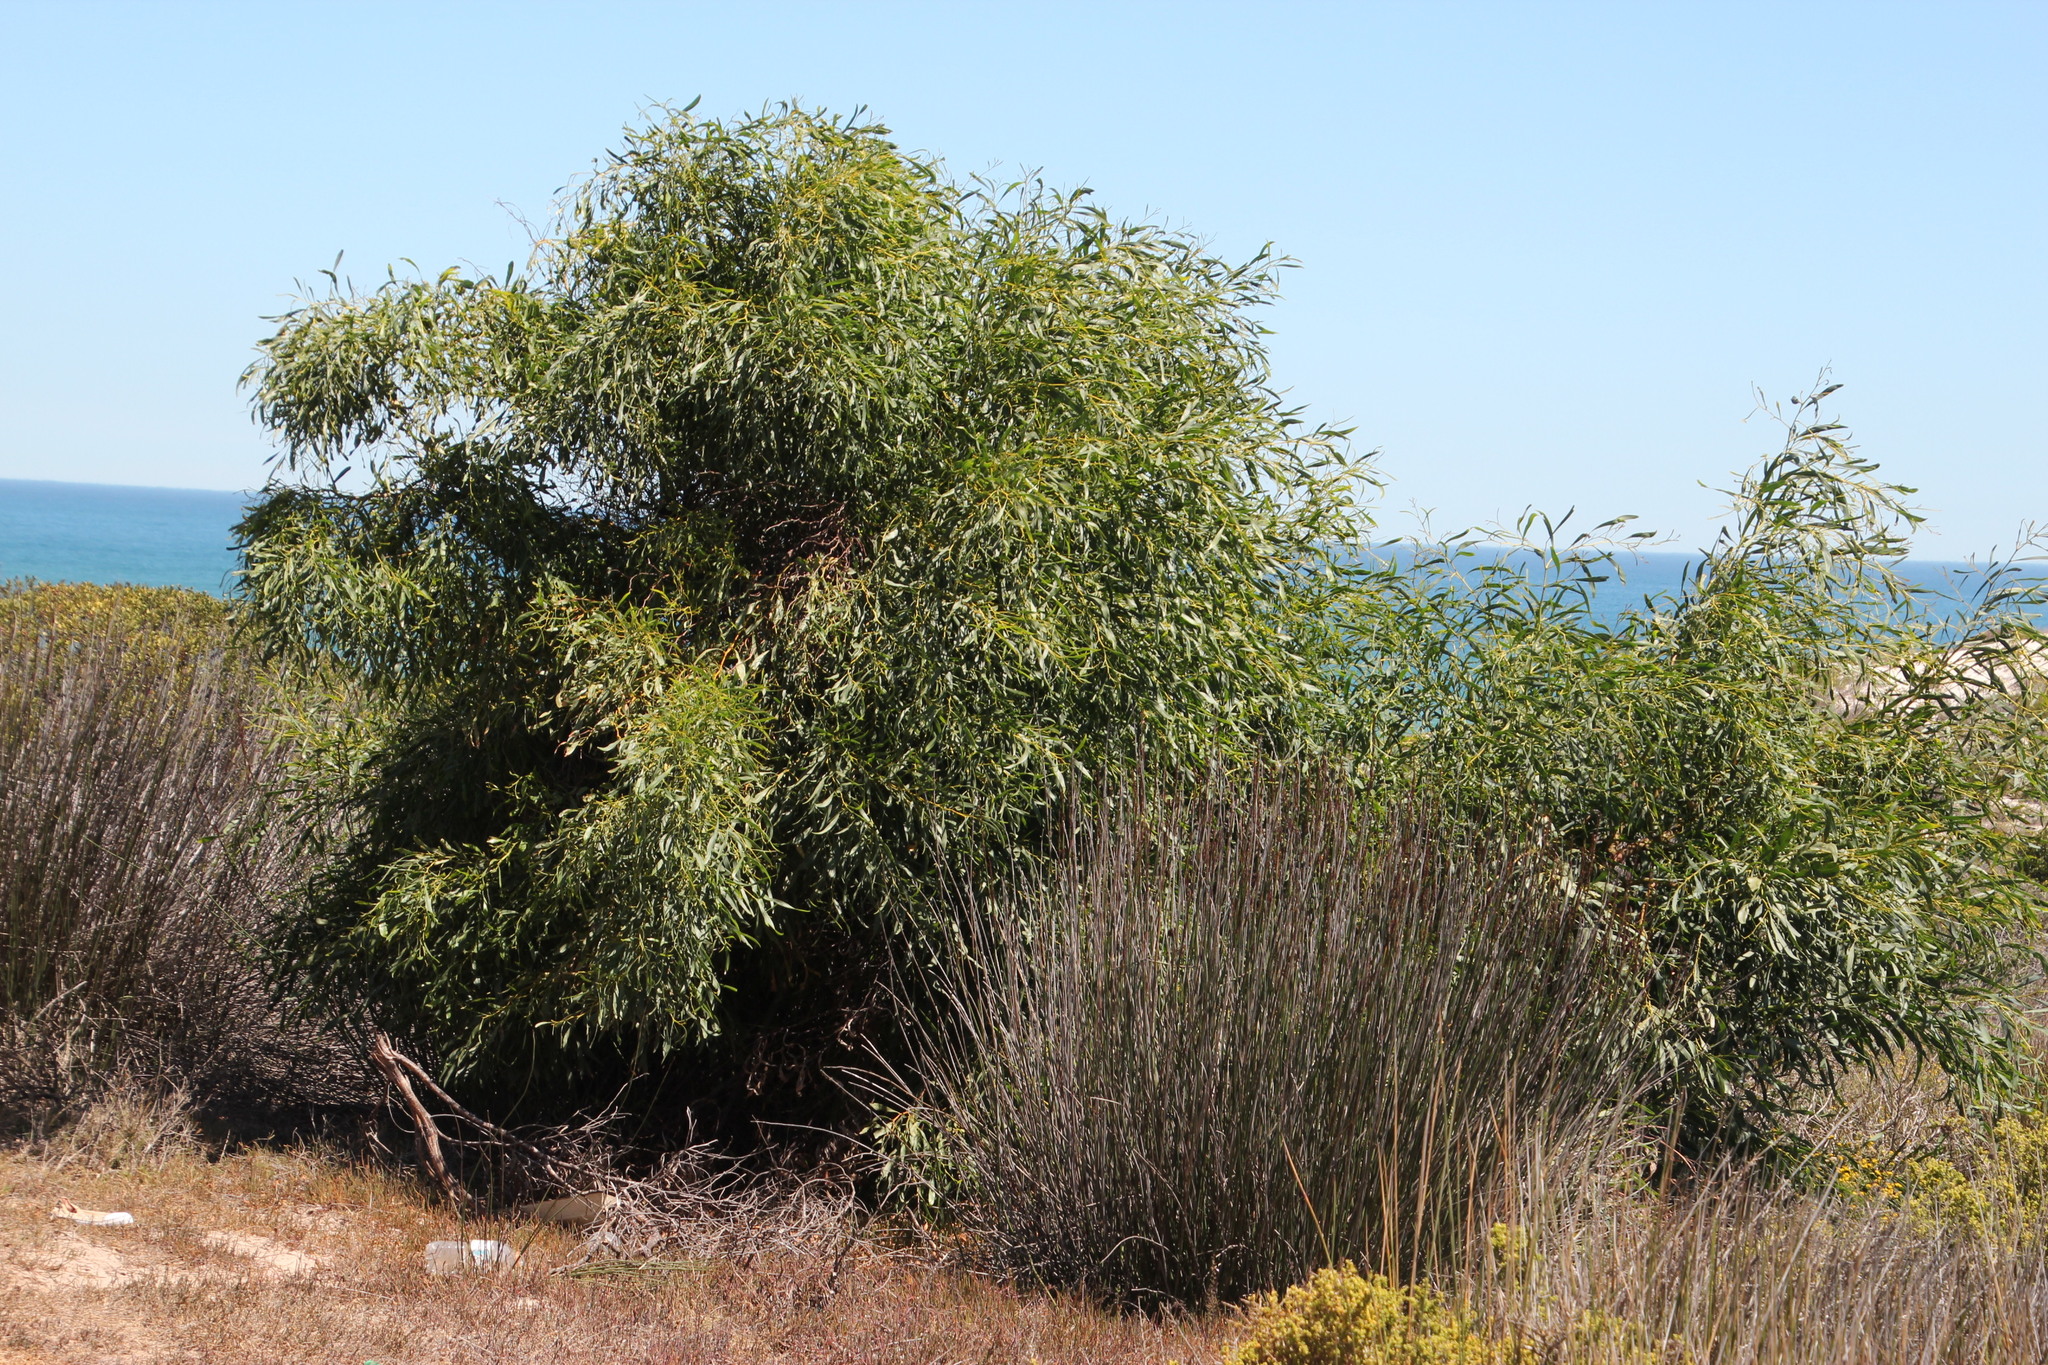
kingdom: Plantae
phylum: Tracheophyta
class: Magnoliopsida
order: Fabales
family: Fabaceae
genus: Acacia
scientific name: Acacia saligna
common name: Orange wattle
